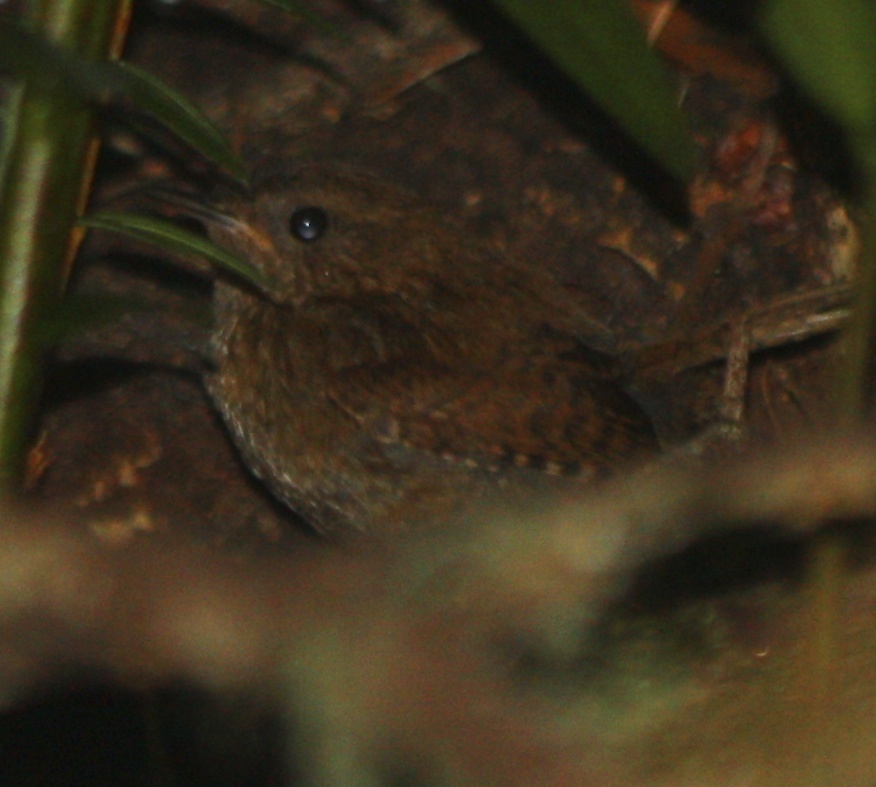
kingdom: Animalia
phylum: Chordata
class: Aves
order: Passeriformes
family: Troglodytidae
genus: Troglodytes
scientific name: Troglodytes pacificus
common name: Pacific wren
